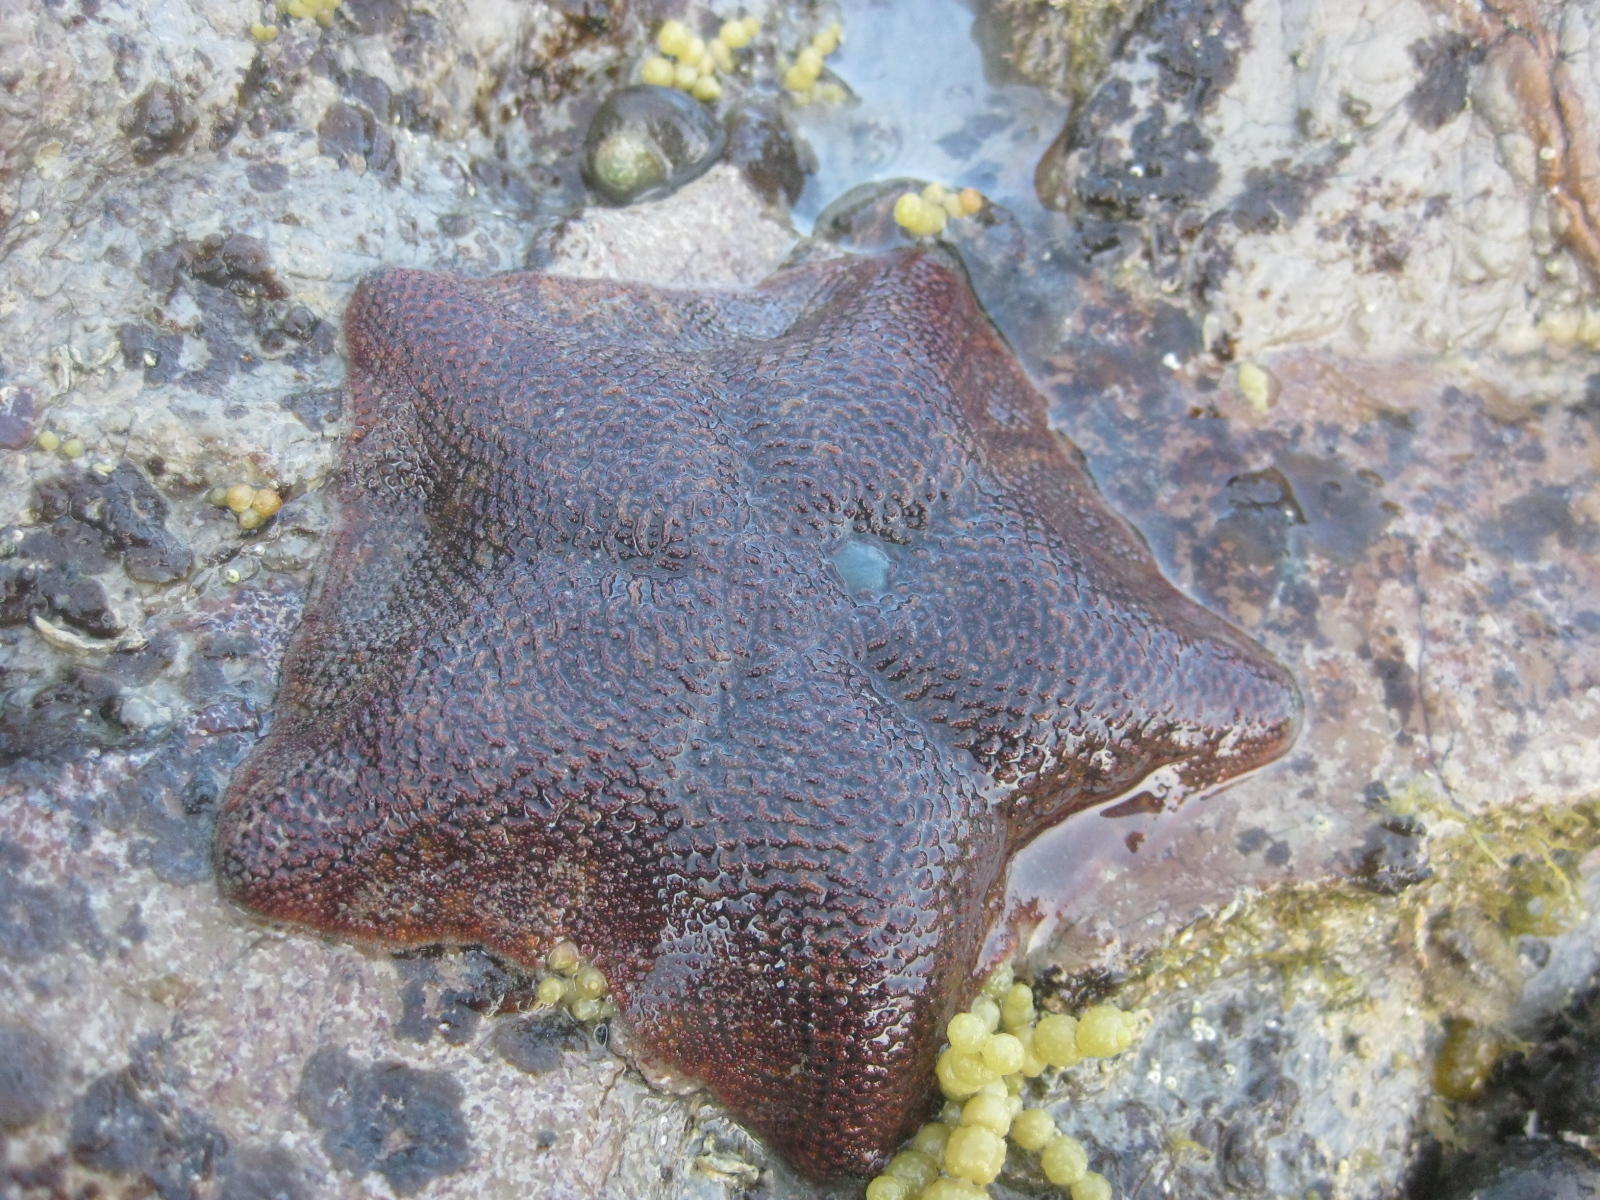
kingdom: Animalia
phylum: Echinodermata
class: Asteroidea
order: Valvatida
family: Asterinidae
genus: Patiriella
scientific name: Patiriella regularis
